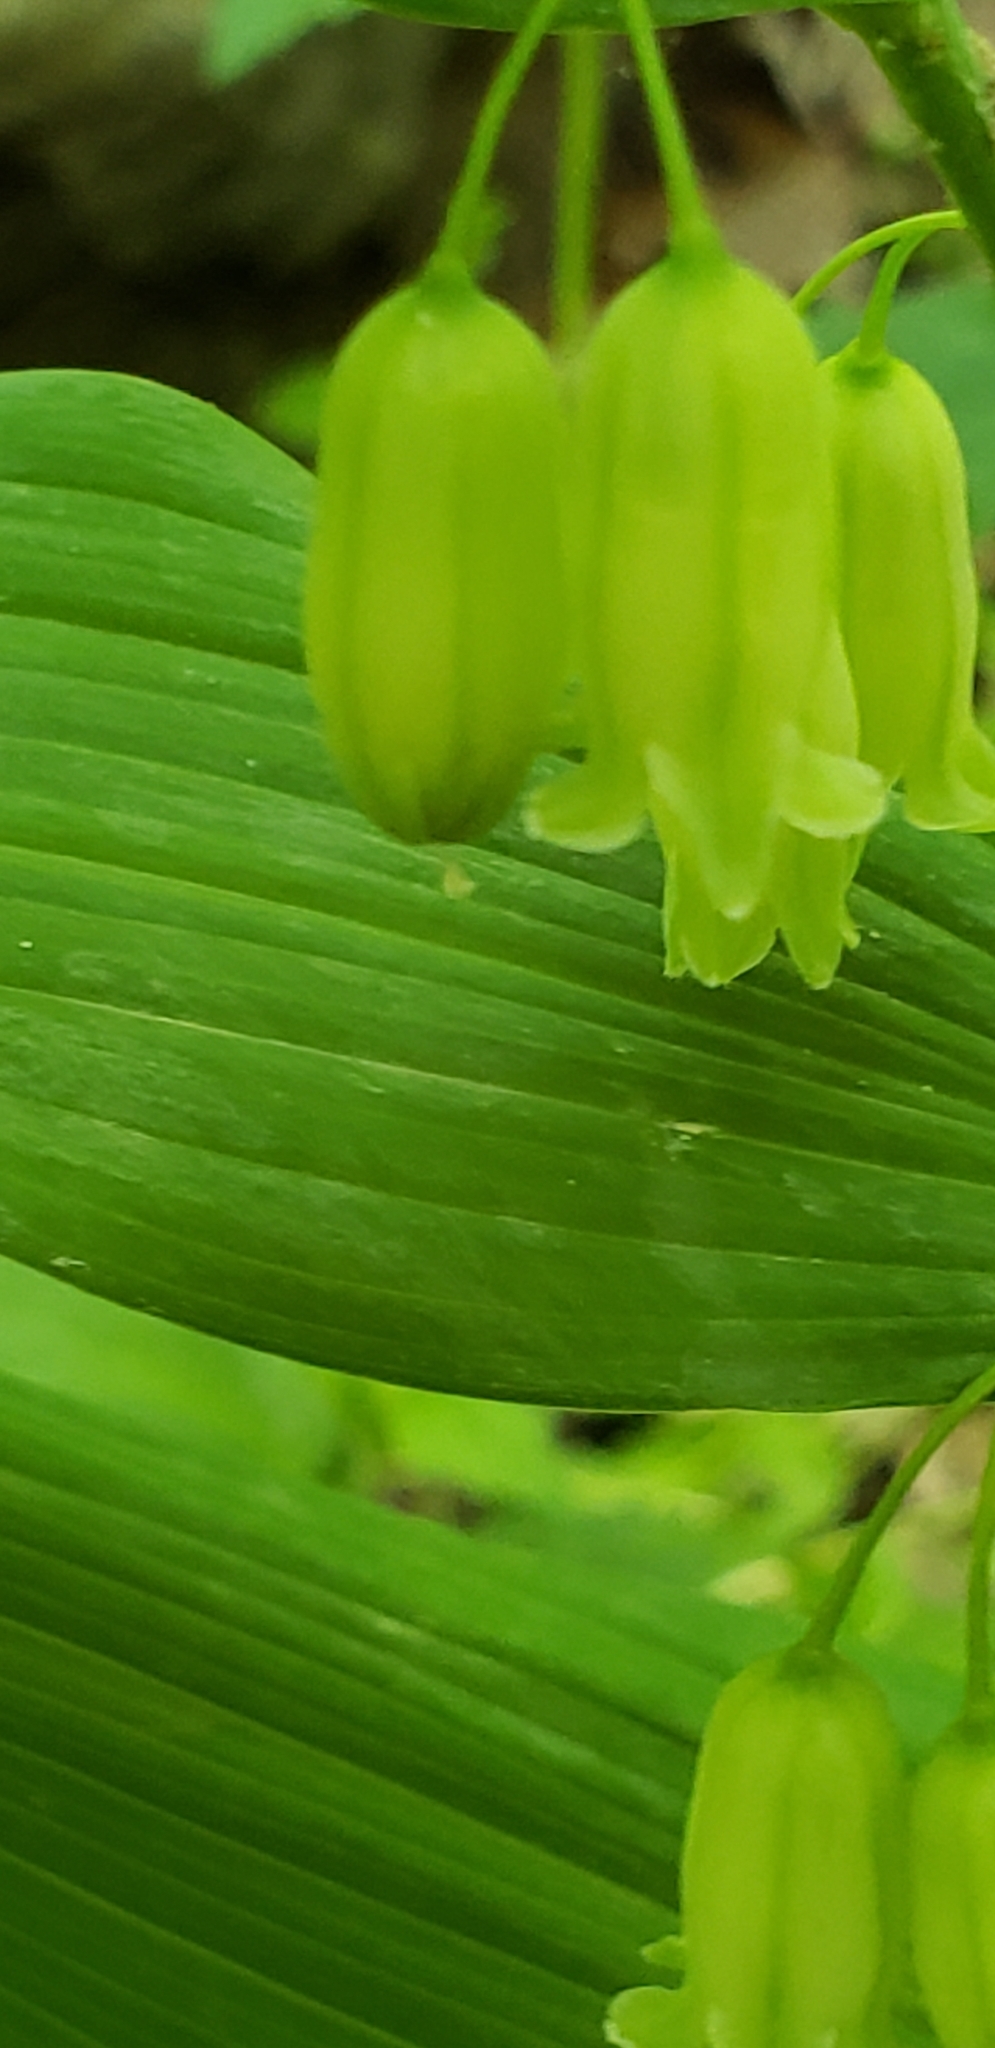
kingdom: Plantae
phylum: Tracheophyta
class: Liliopsida
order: Asparagales
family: Asparagaceae
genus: Polygonatum
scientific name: Polygonatum biflorum
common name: American solomon's-seal
